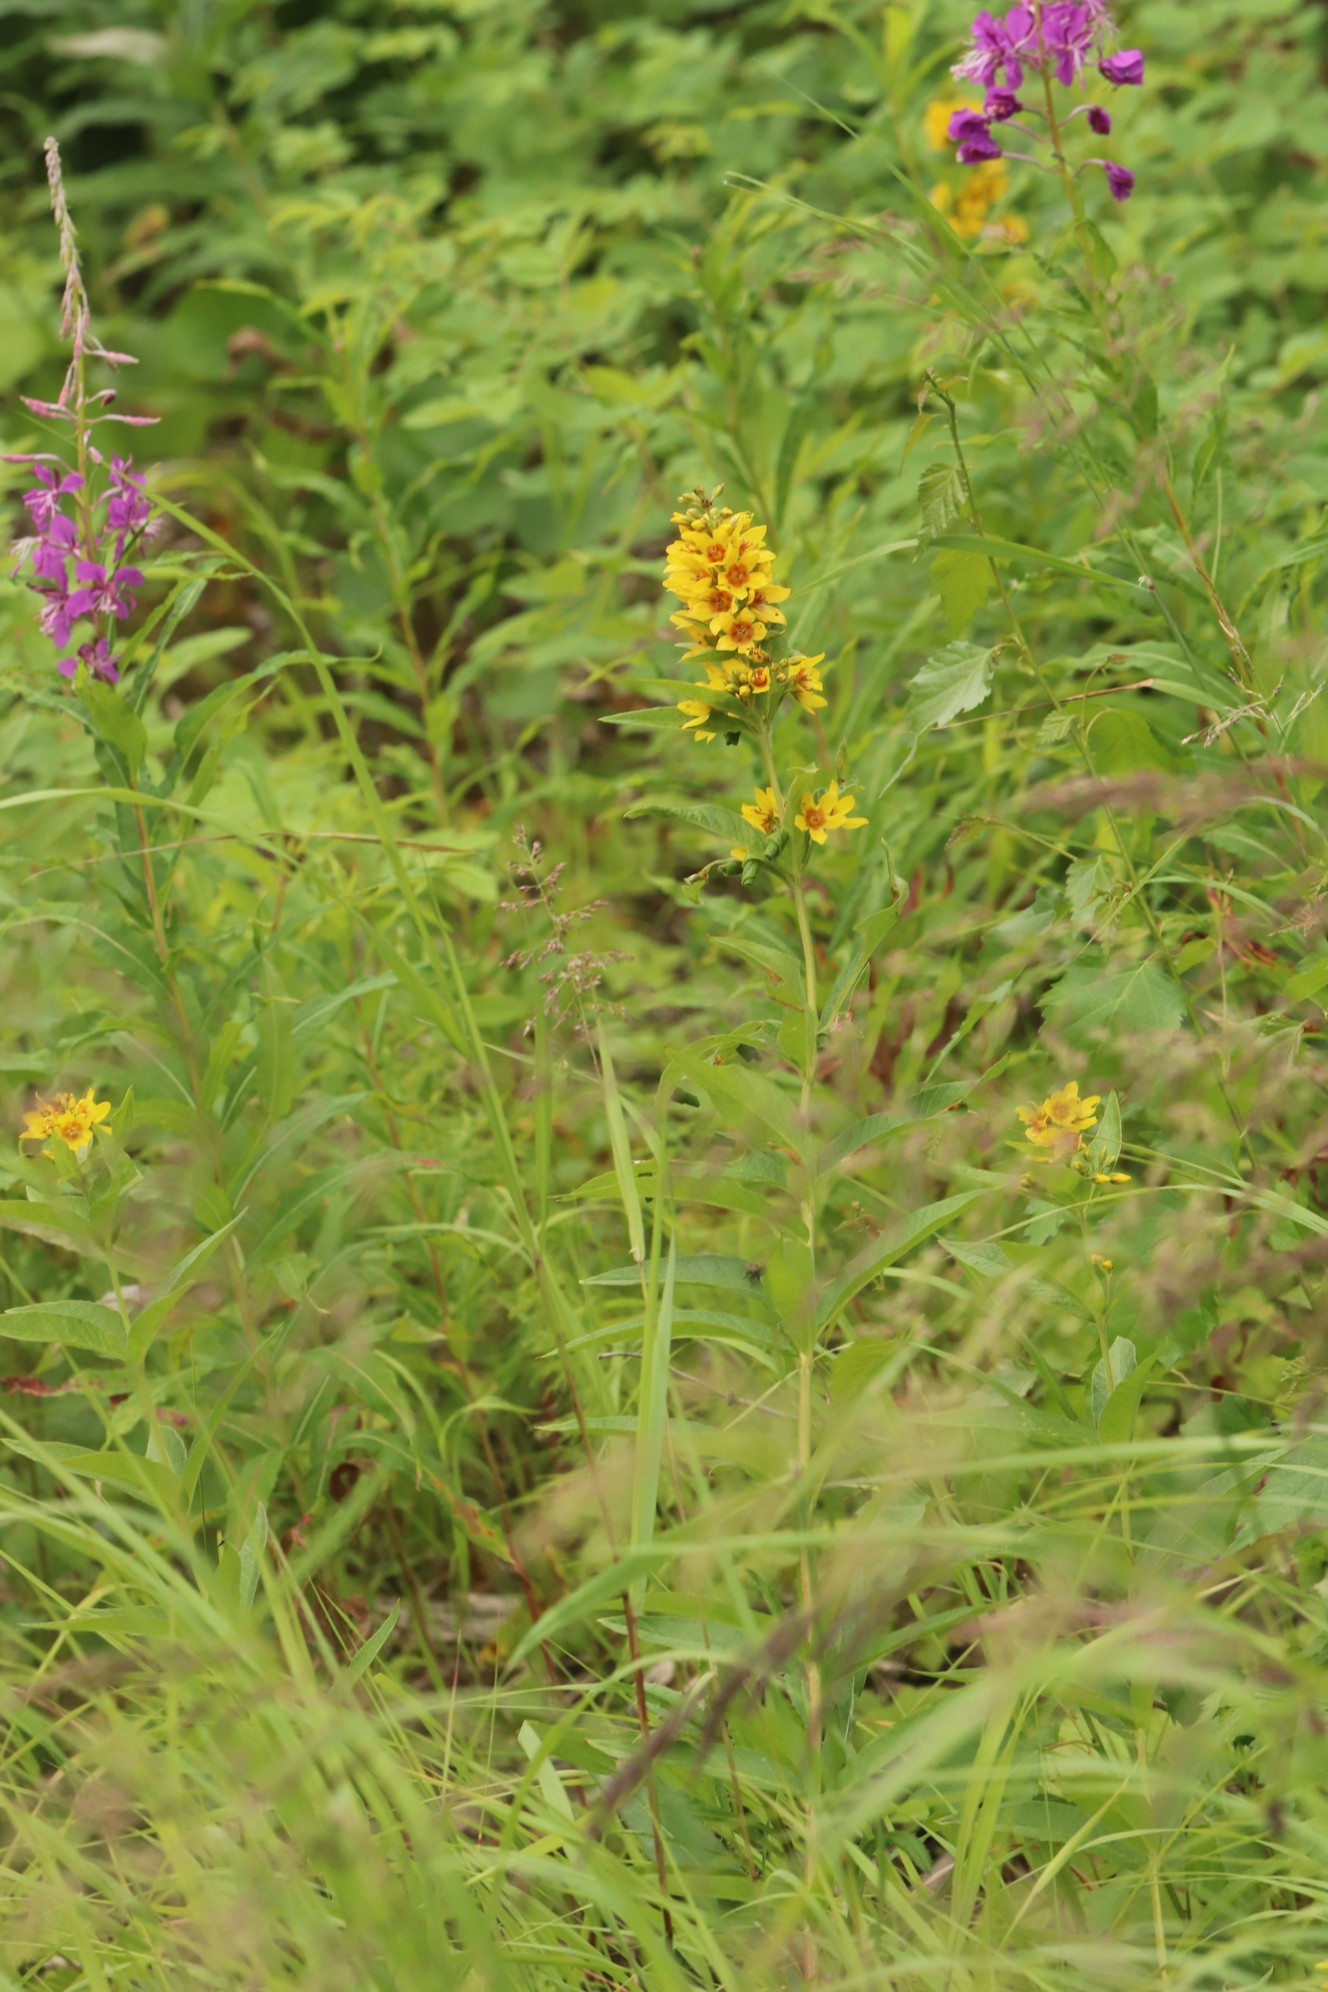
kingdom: Plantae
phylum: Tracheophyta
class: Magnoliopsida
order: Ericales
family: Primulaceae
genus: Lysimachia
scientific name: Lysimachia vulgaris
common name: Yellow loosestrife
